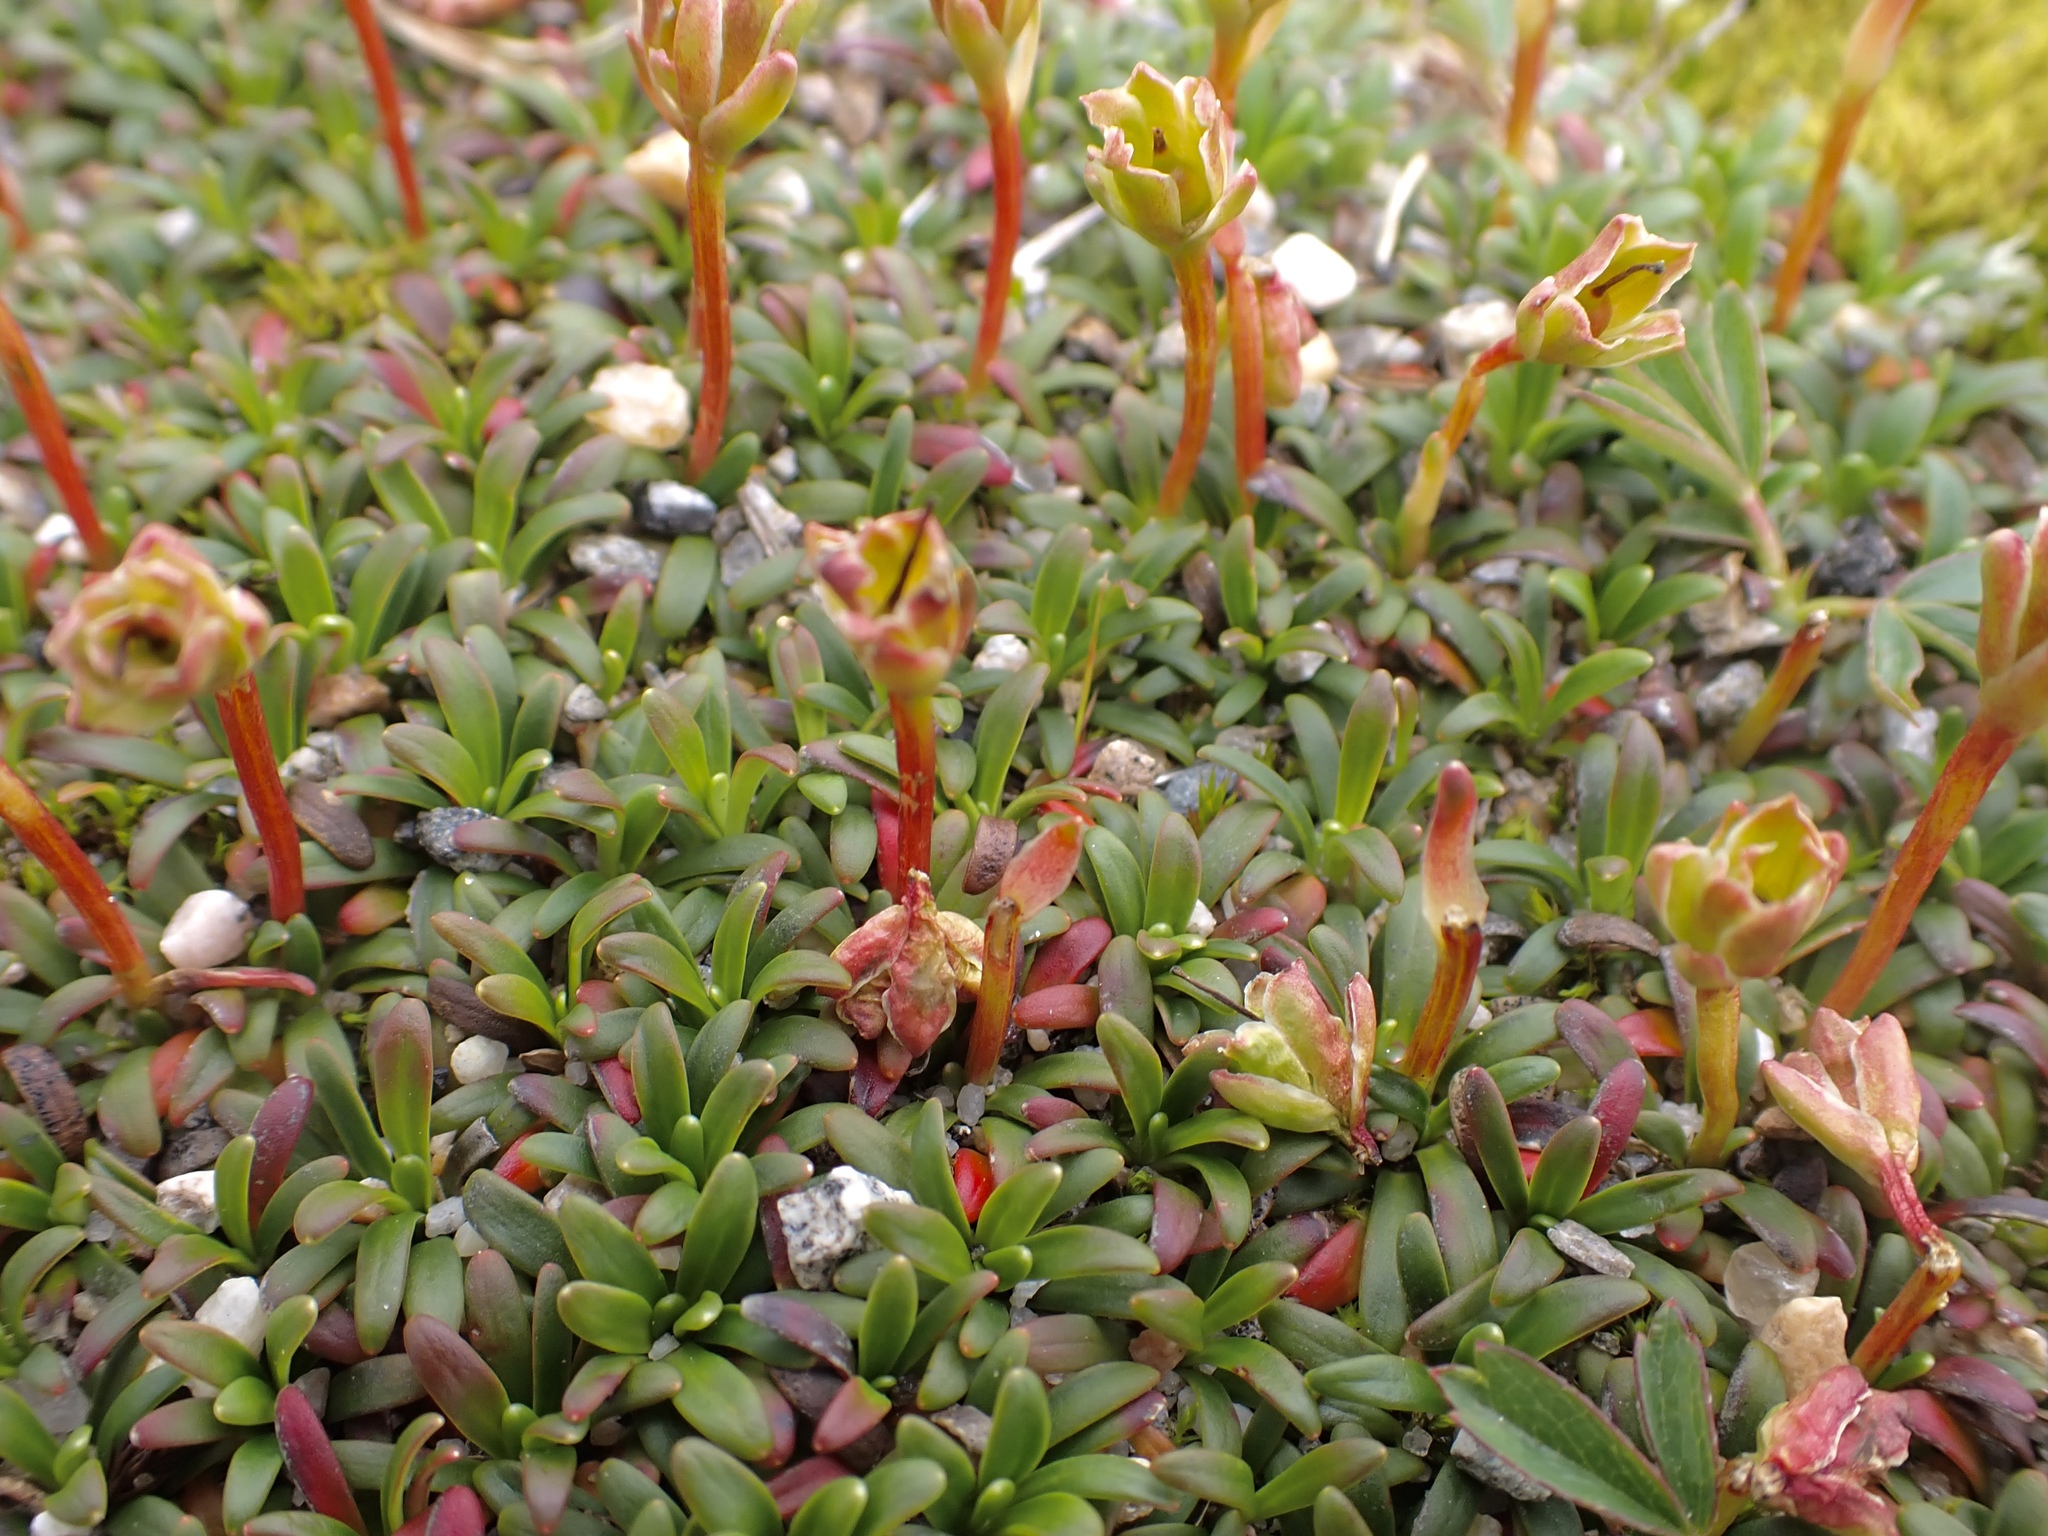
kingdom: Plantae
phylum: Tracheophyta
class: Magnoliopsida
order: Ericales
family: Diapensiaceae
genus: Diapensia
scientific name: Diapensia lapponica
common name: Diapensia
